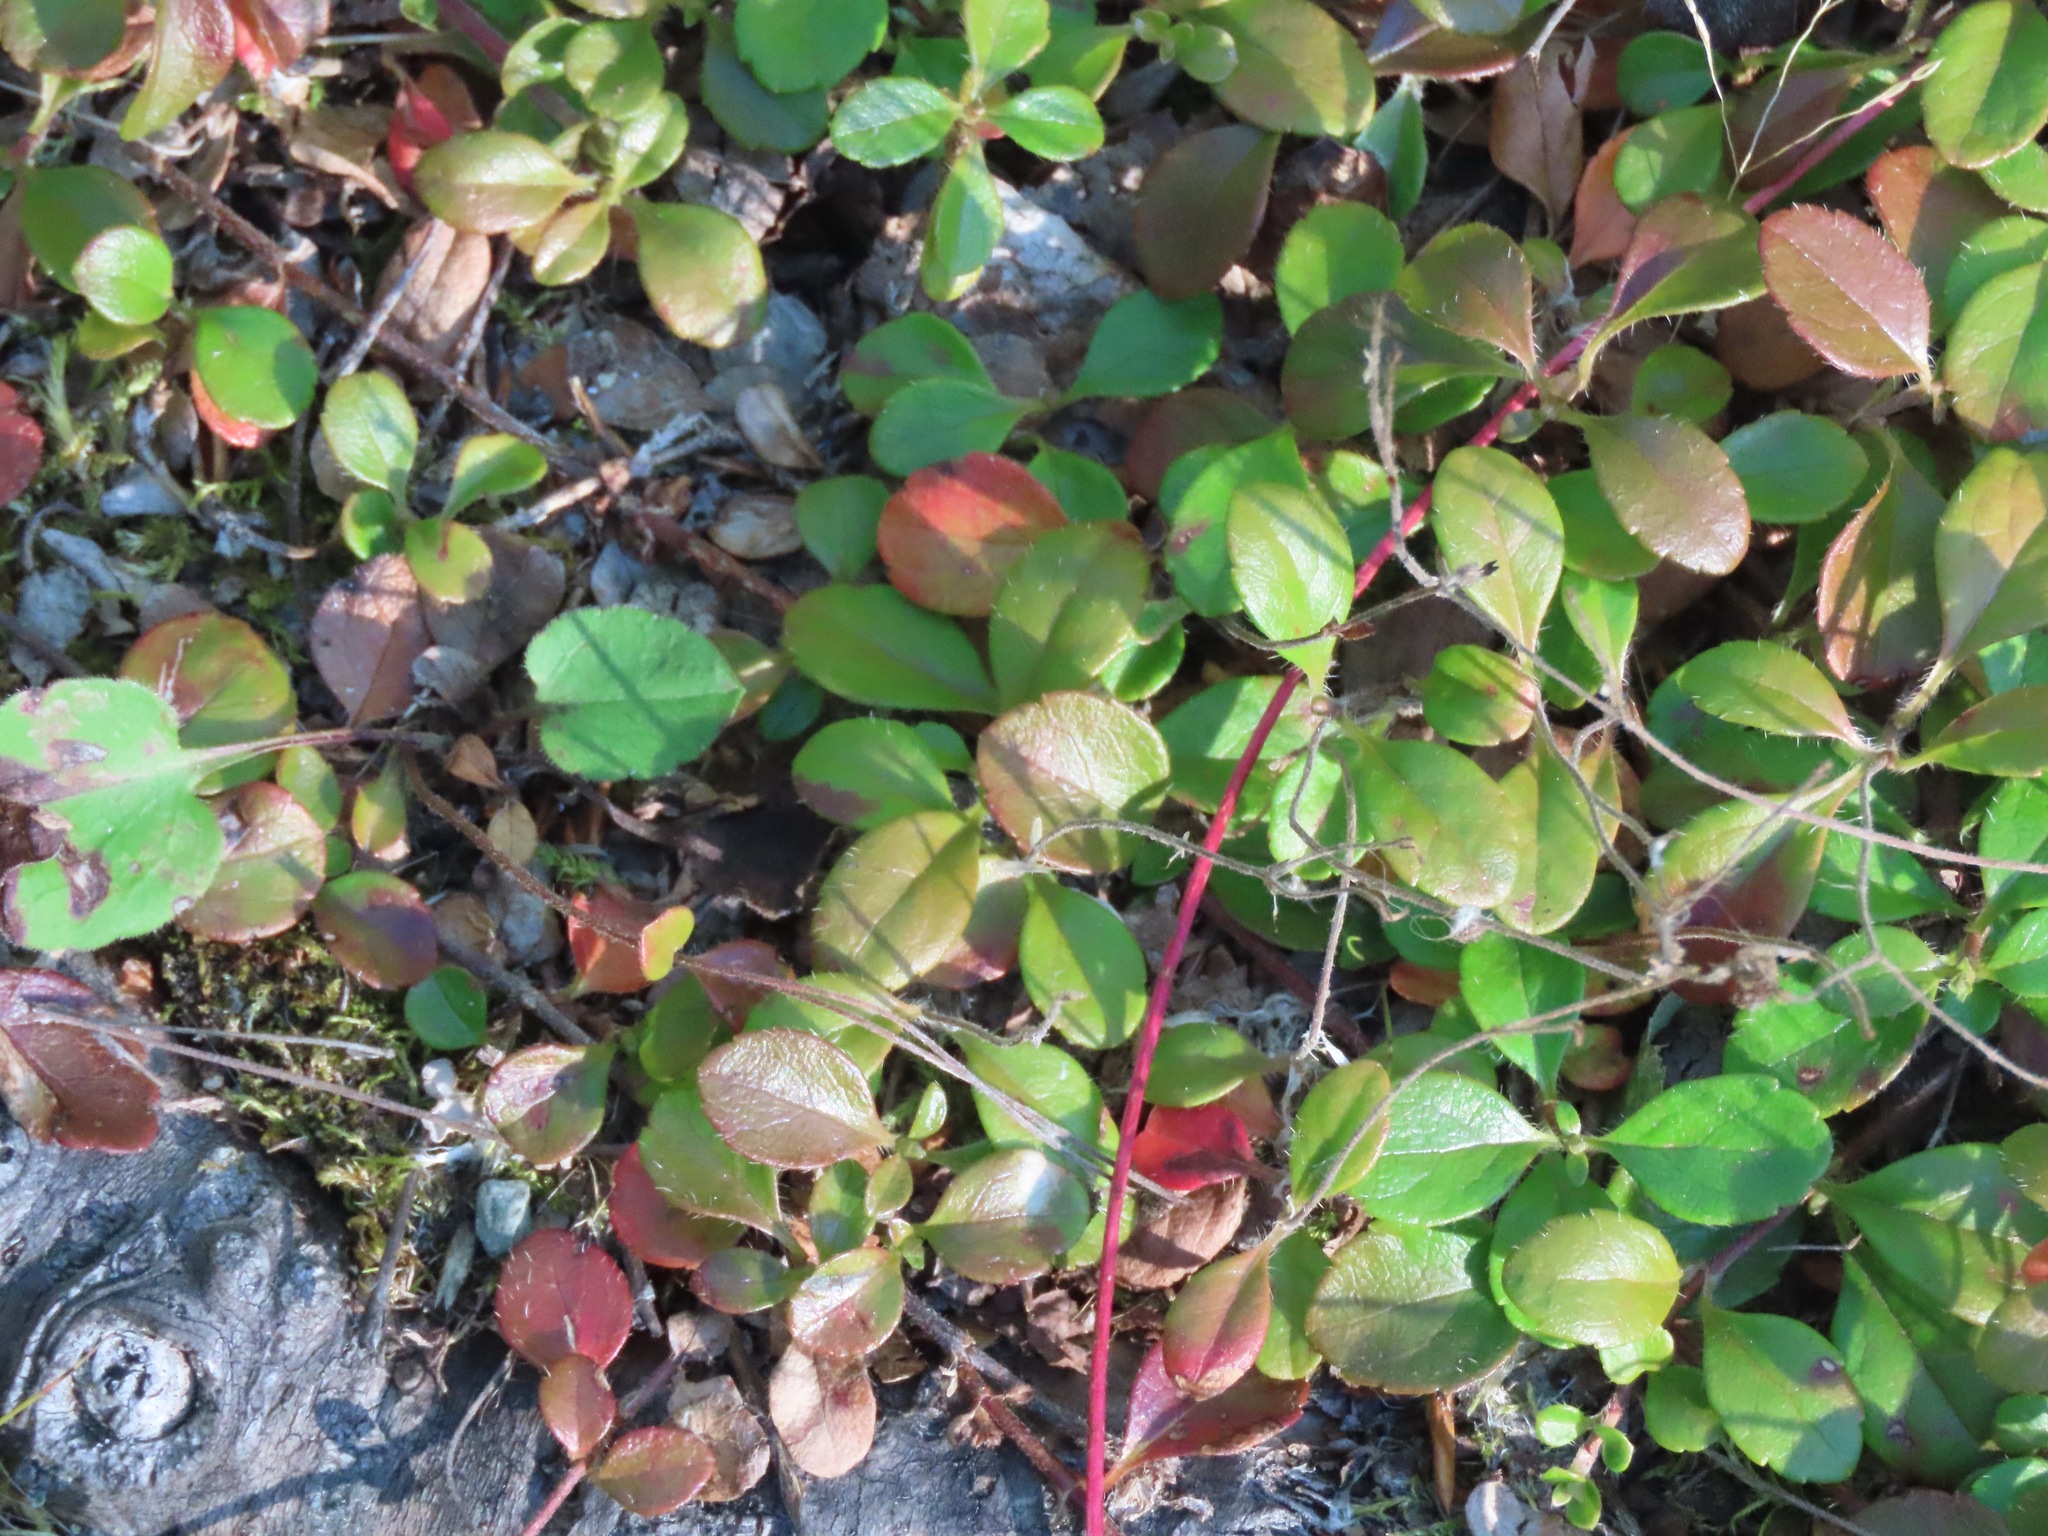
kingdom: Plantae
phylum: Tracheophyta
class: Magnoliopsida
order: Dipsacales
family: Caprifoliaceae
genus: Linnaea
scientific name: Linnaea borealis
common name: Twinflower
